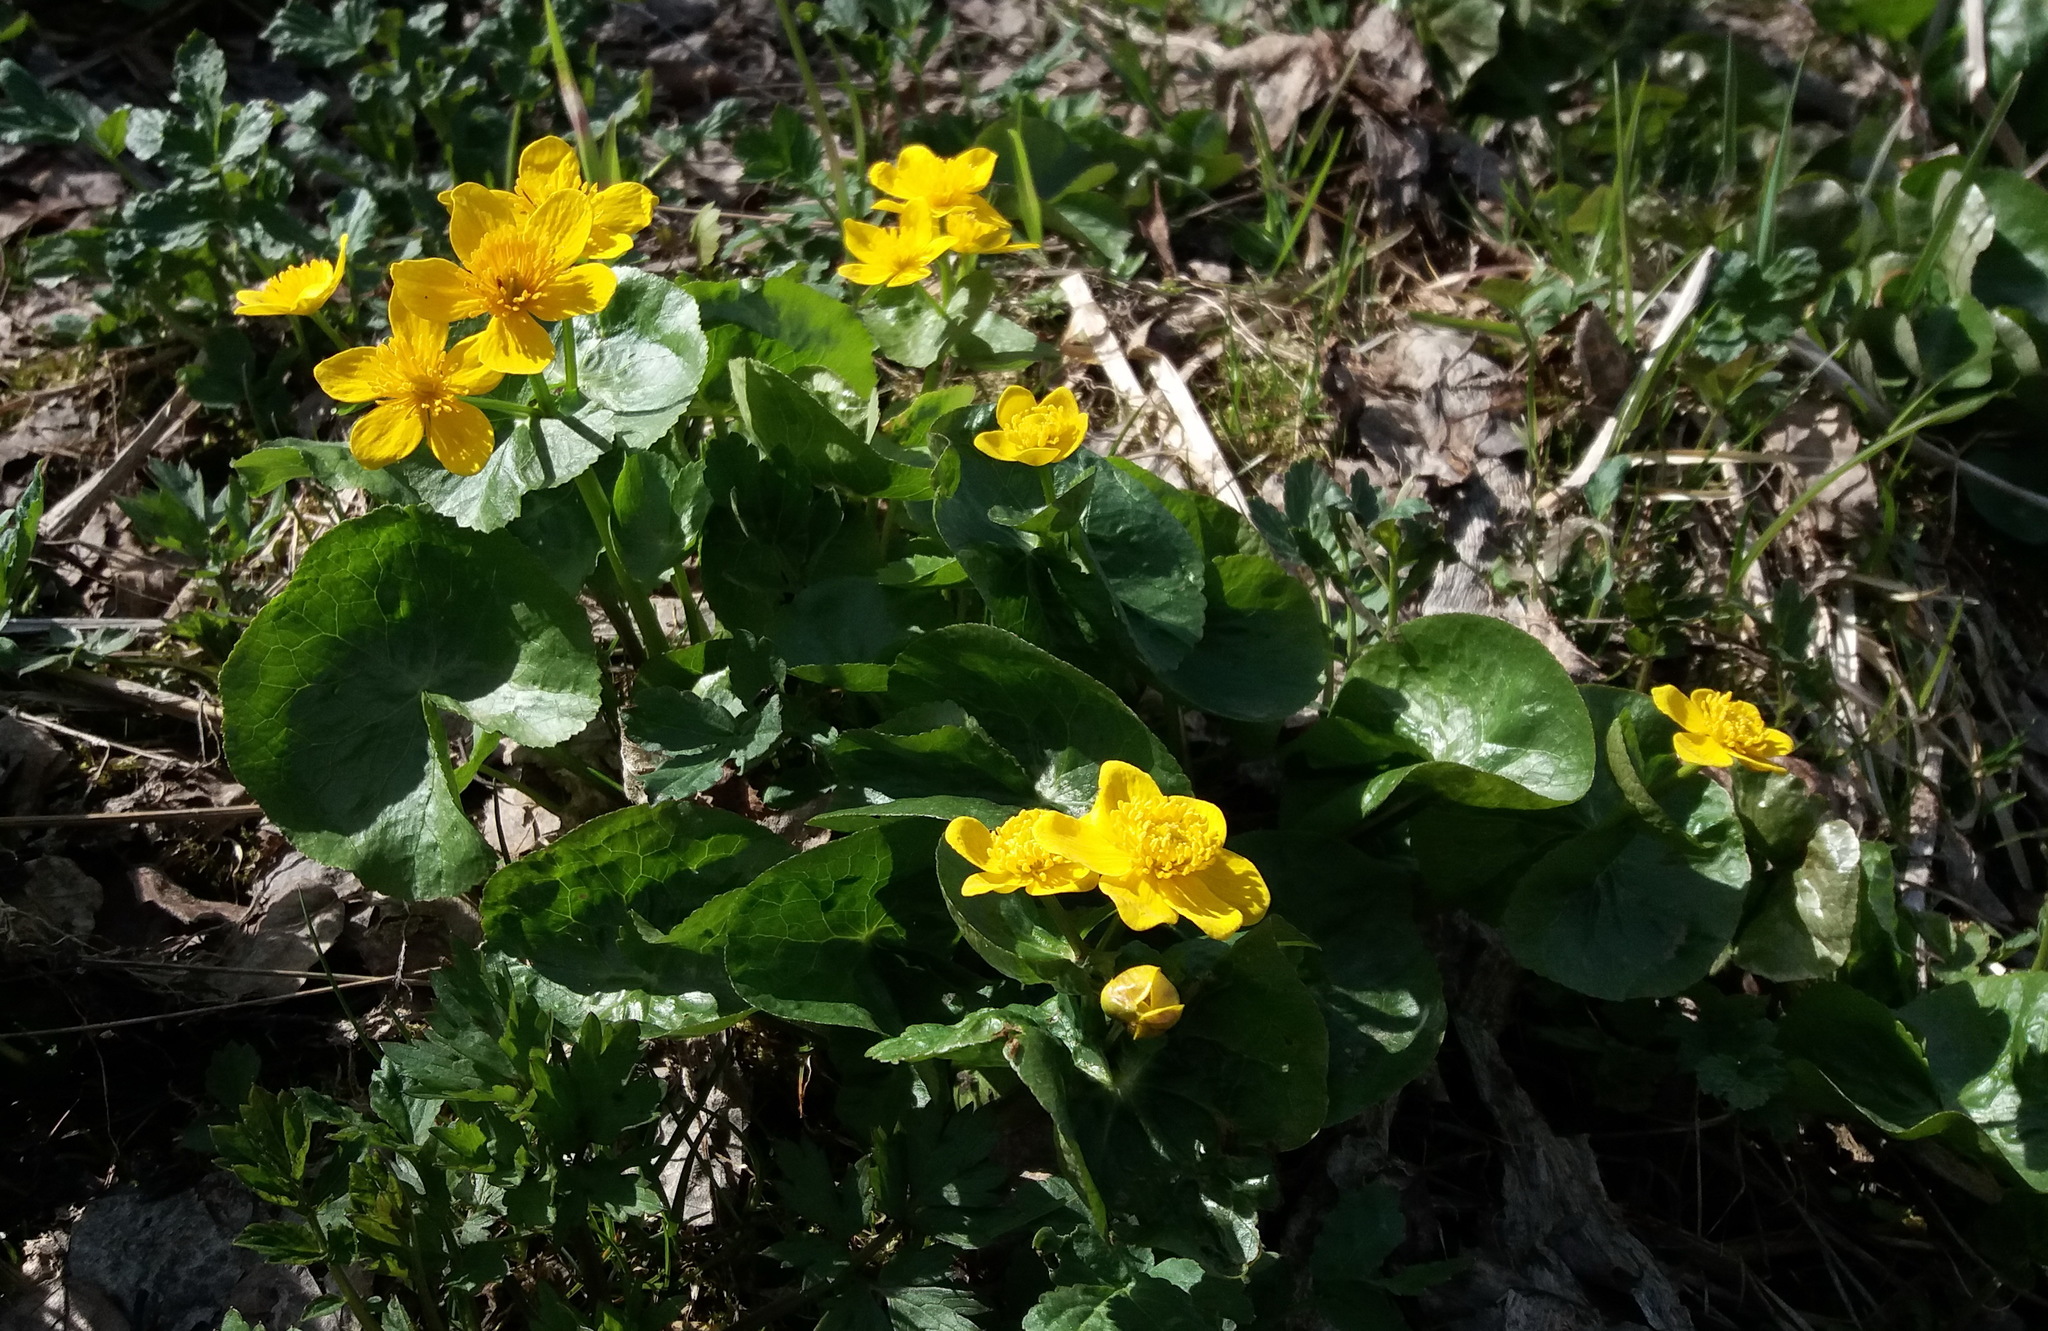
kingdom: Plantae
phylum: Tracheophyta
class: Magnoliopsida
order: Ranunculales
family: Ranunculaceae
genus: Caltha
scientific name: Caltha palustris
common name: Marsh marigold
